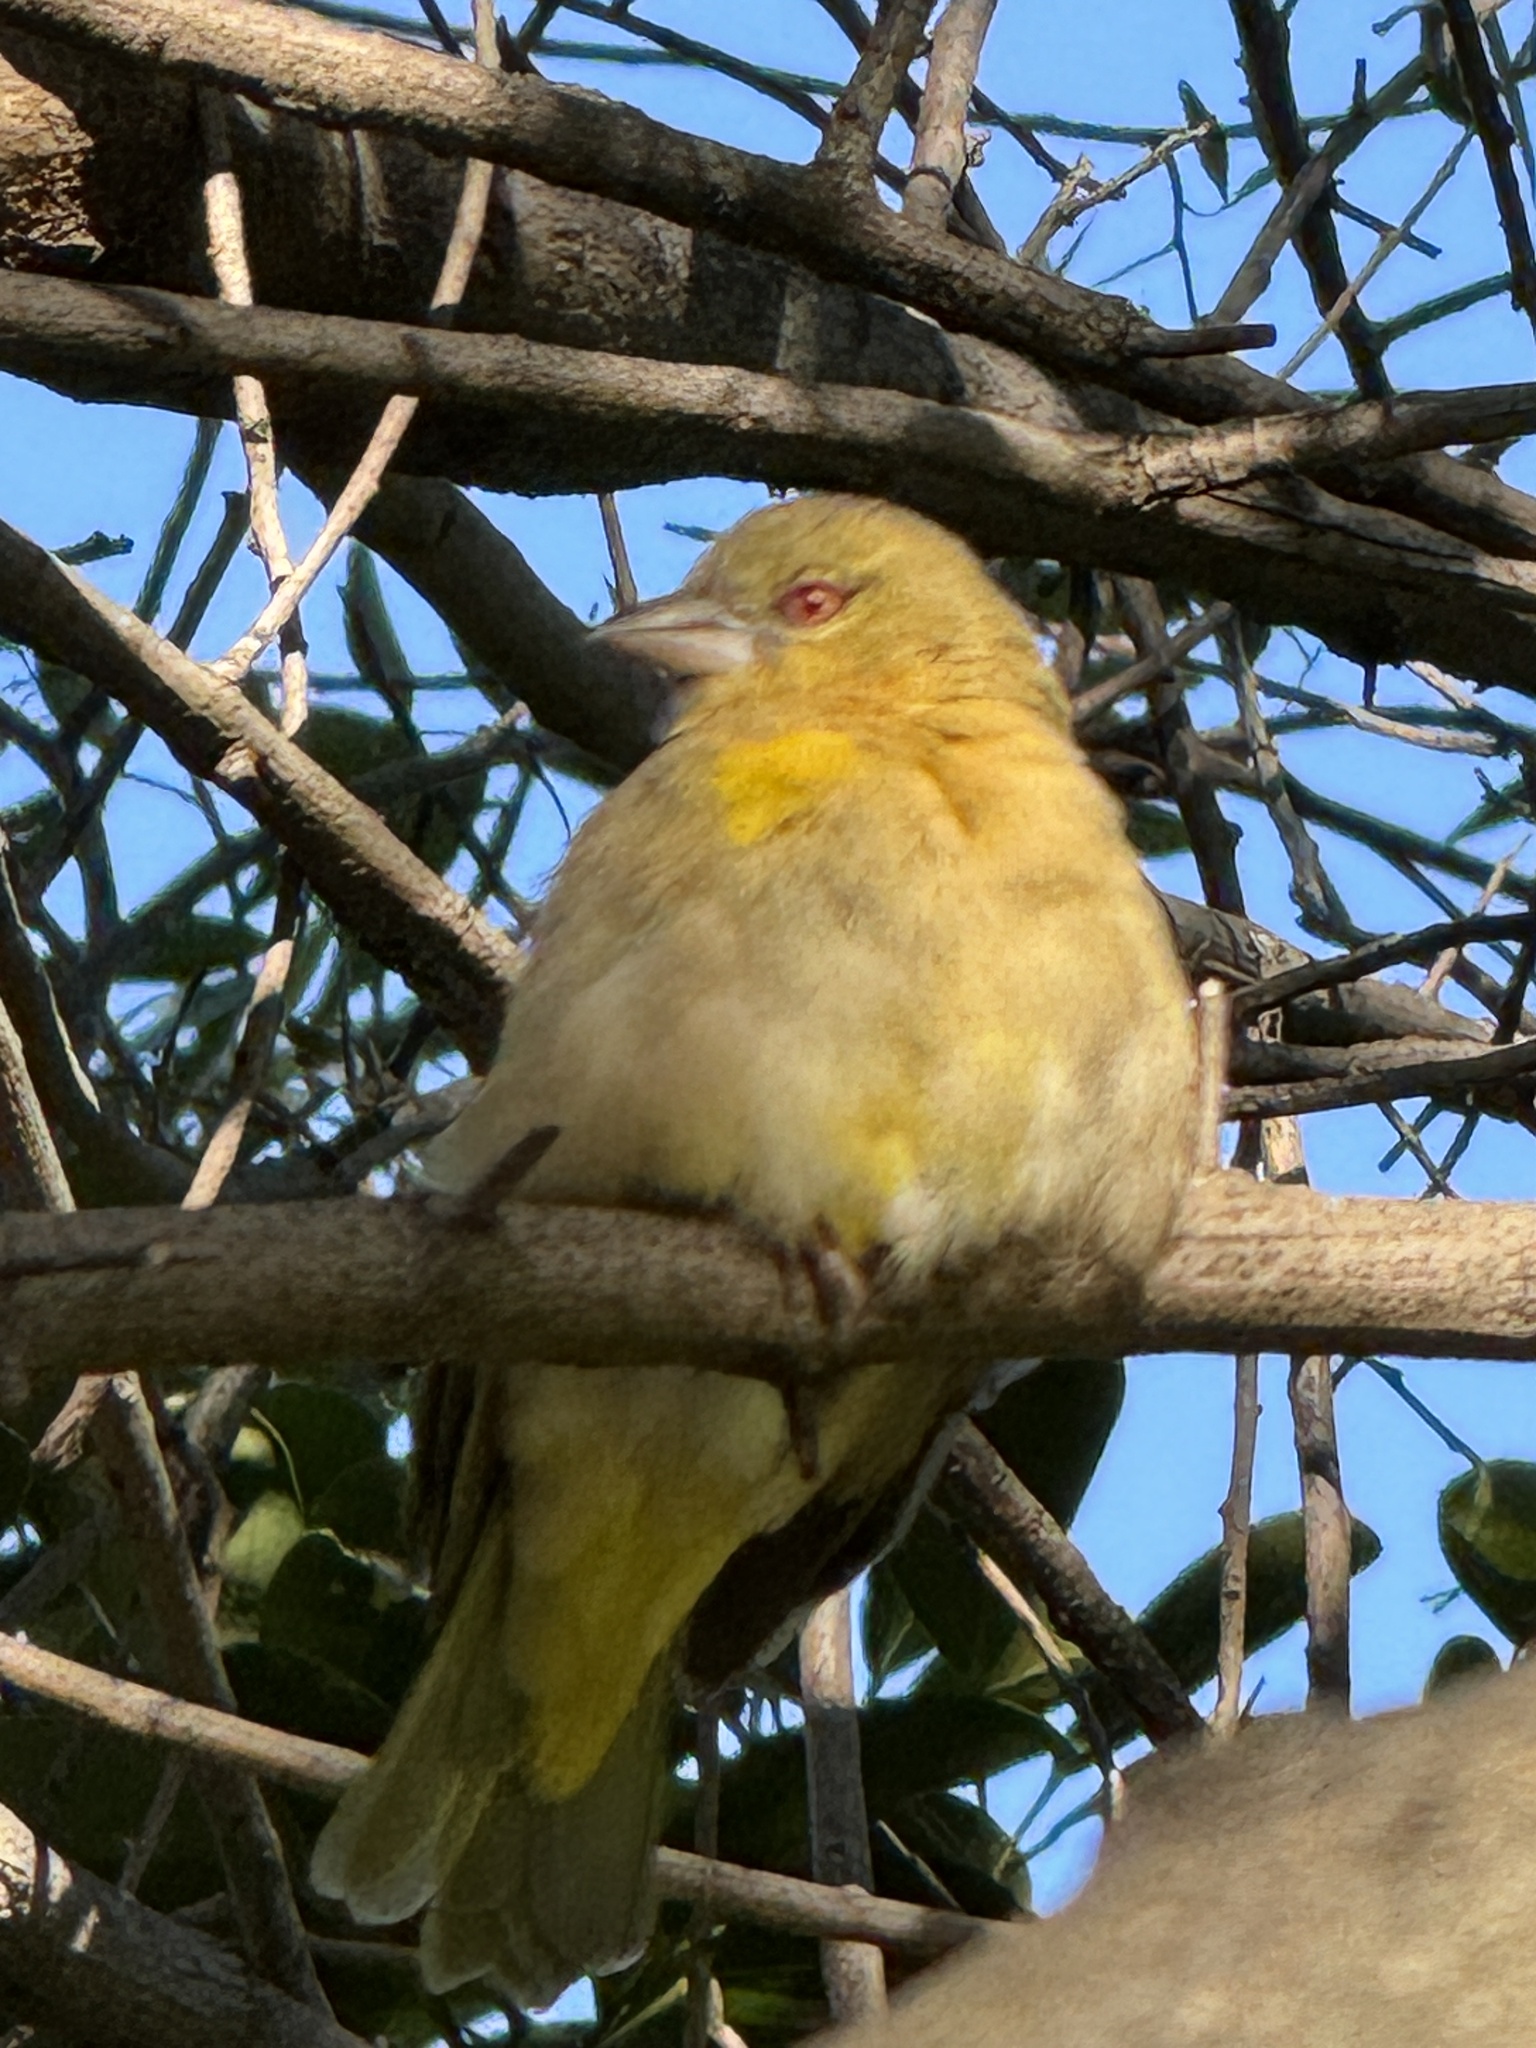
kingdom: Animalia
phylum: Chordata
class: Aves
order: Passeriformes
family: Ploceidae
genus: Ploceus
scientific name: Ploceus velatus
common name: Southern masked weaver
